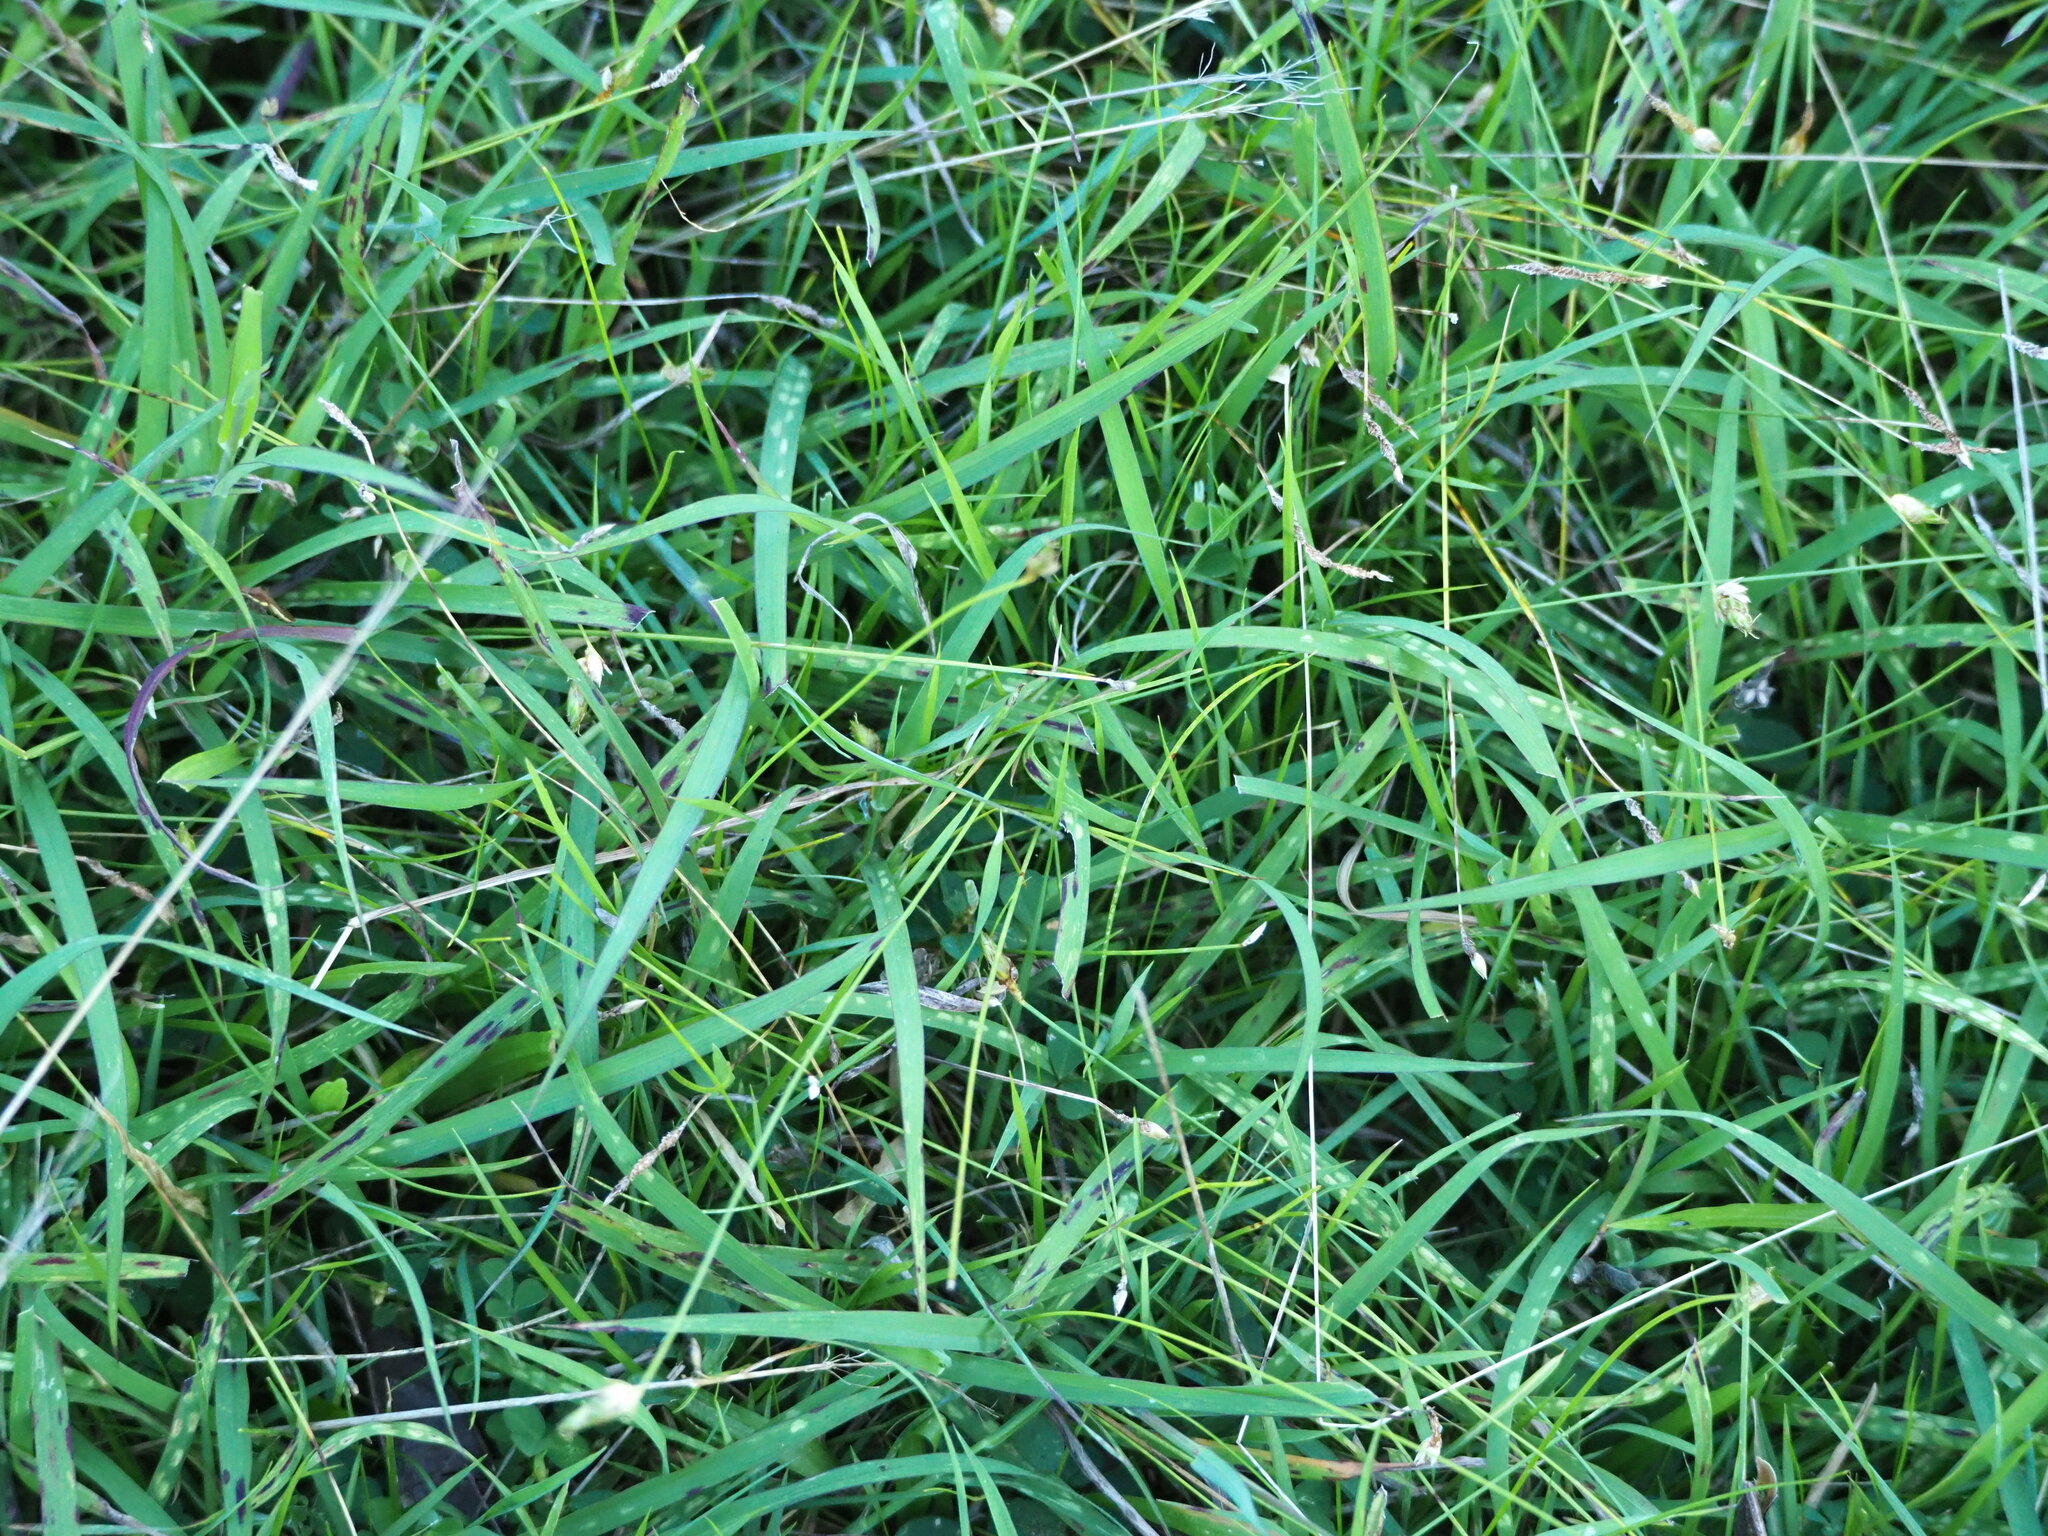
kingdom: Plantae
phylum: Tracheophyta
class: Liliopsida
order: Poales
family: Cyperaceae
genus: Abildgaardia
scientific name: Abildgaardia ovata
